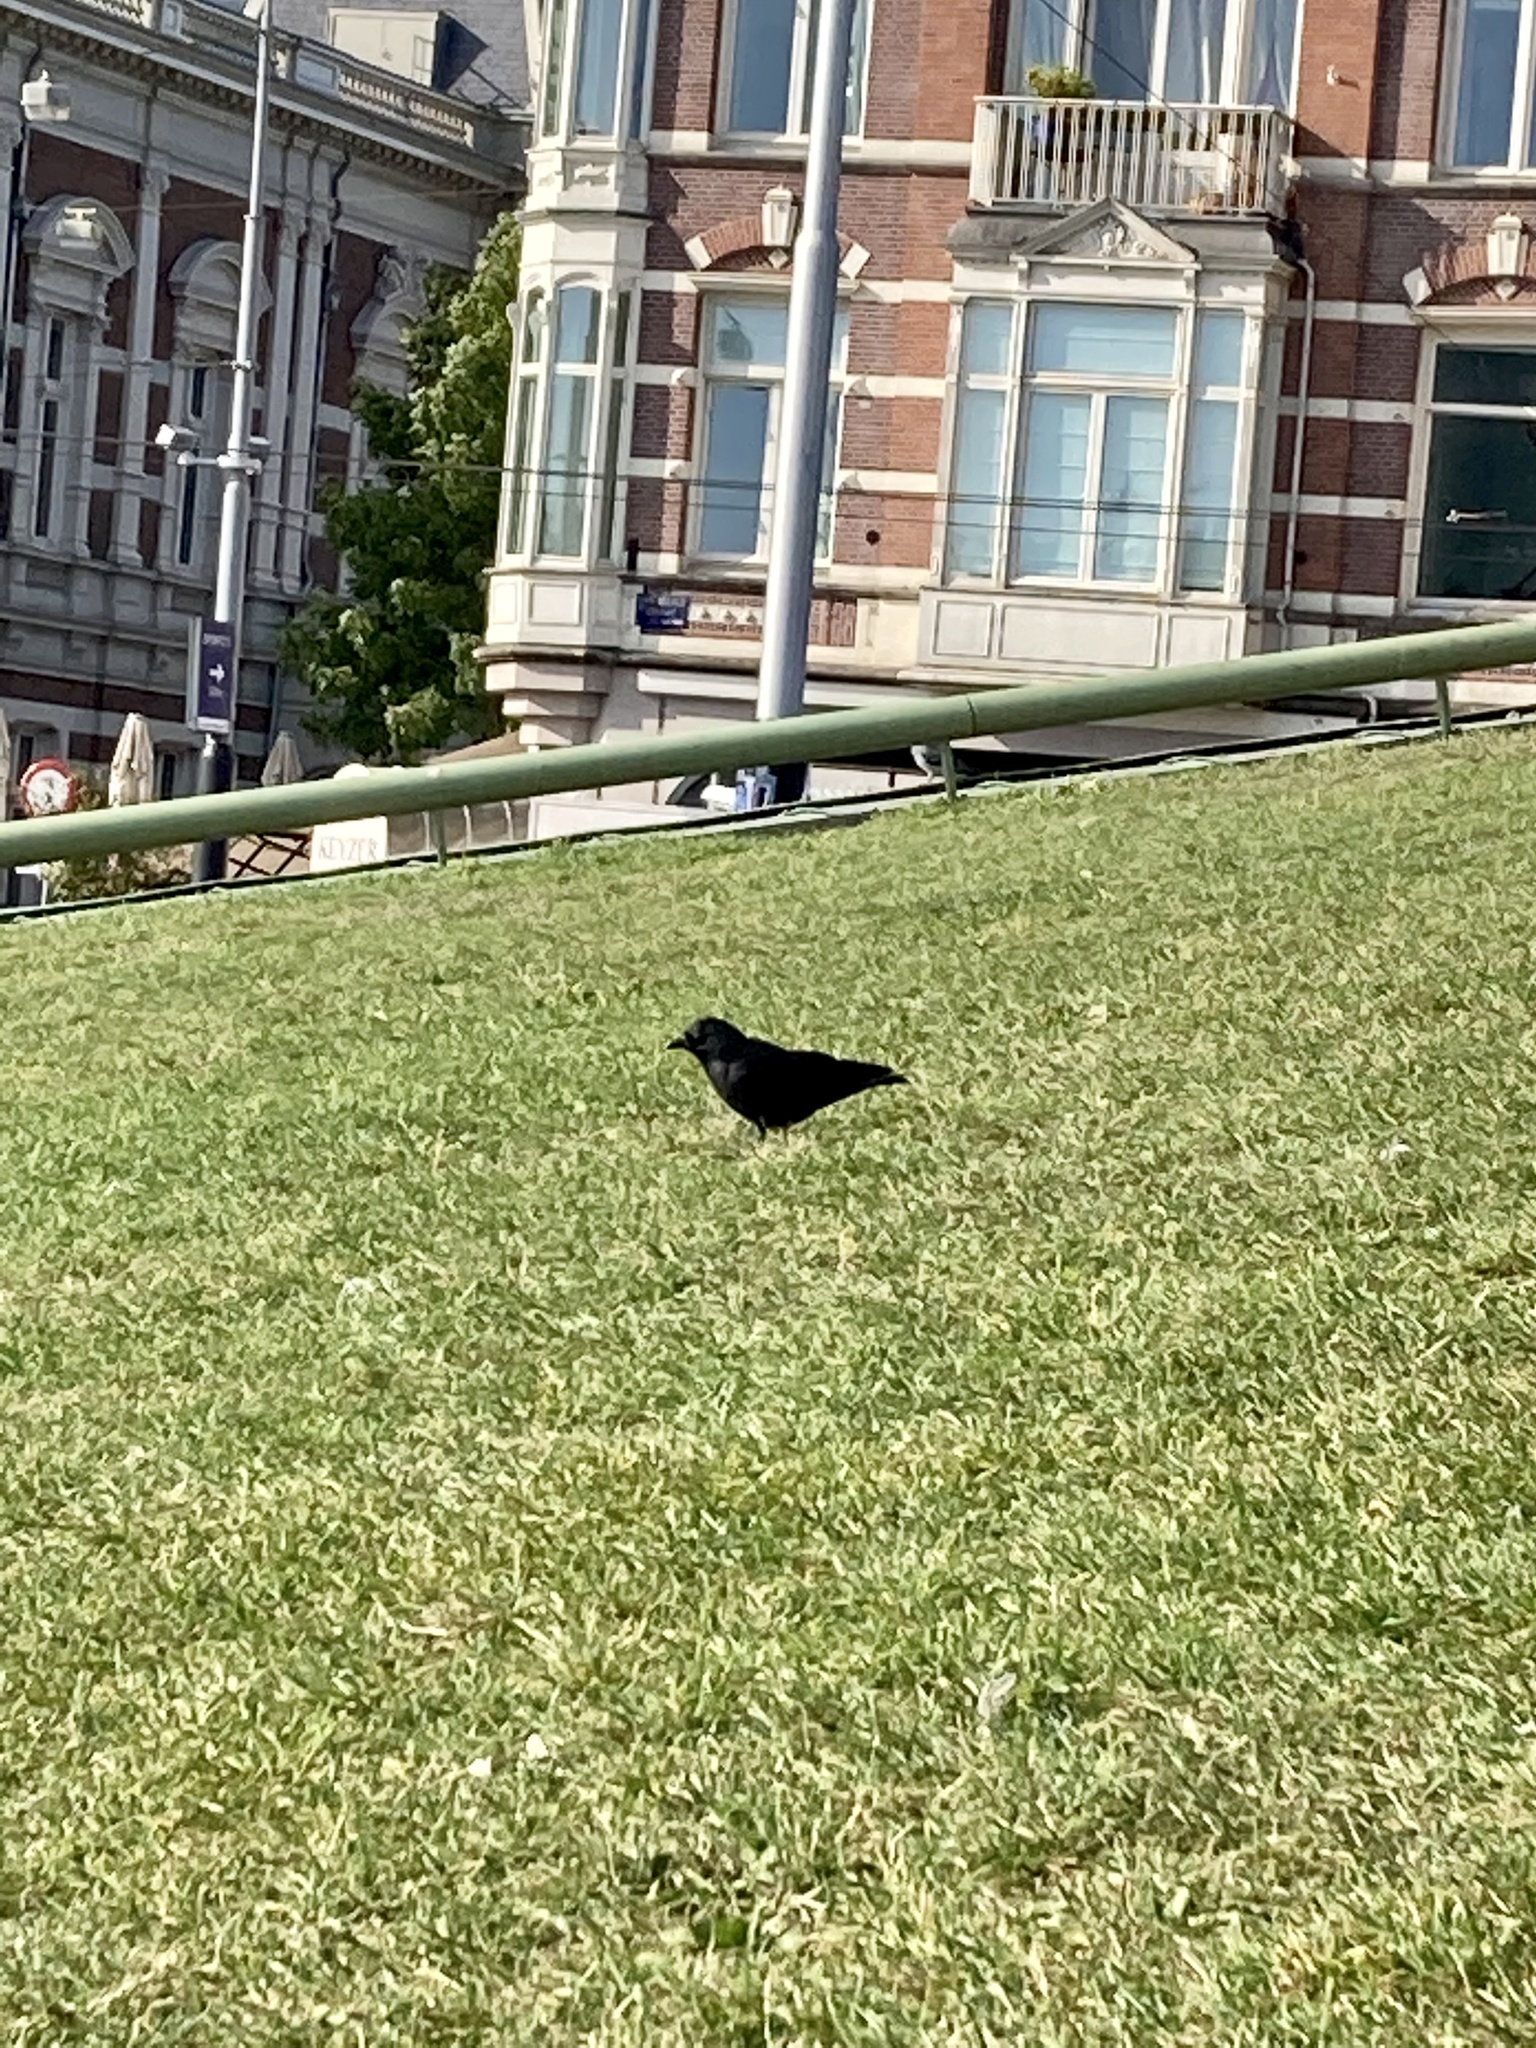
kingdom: Animalia
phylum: Chordata
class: Aves
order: Passeriformes
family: Corvidae
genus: Corvus
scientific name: Corvus corone
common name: Carrion crow
